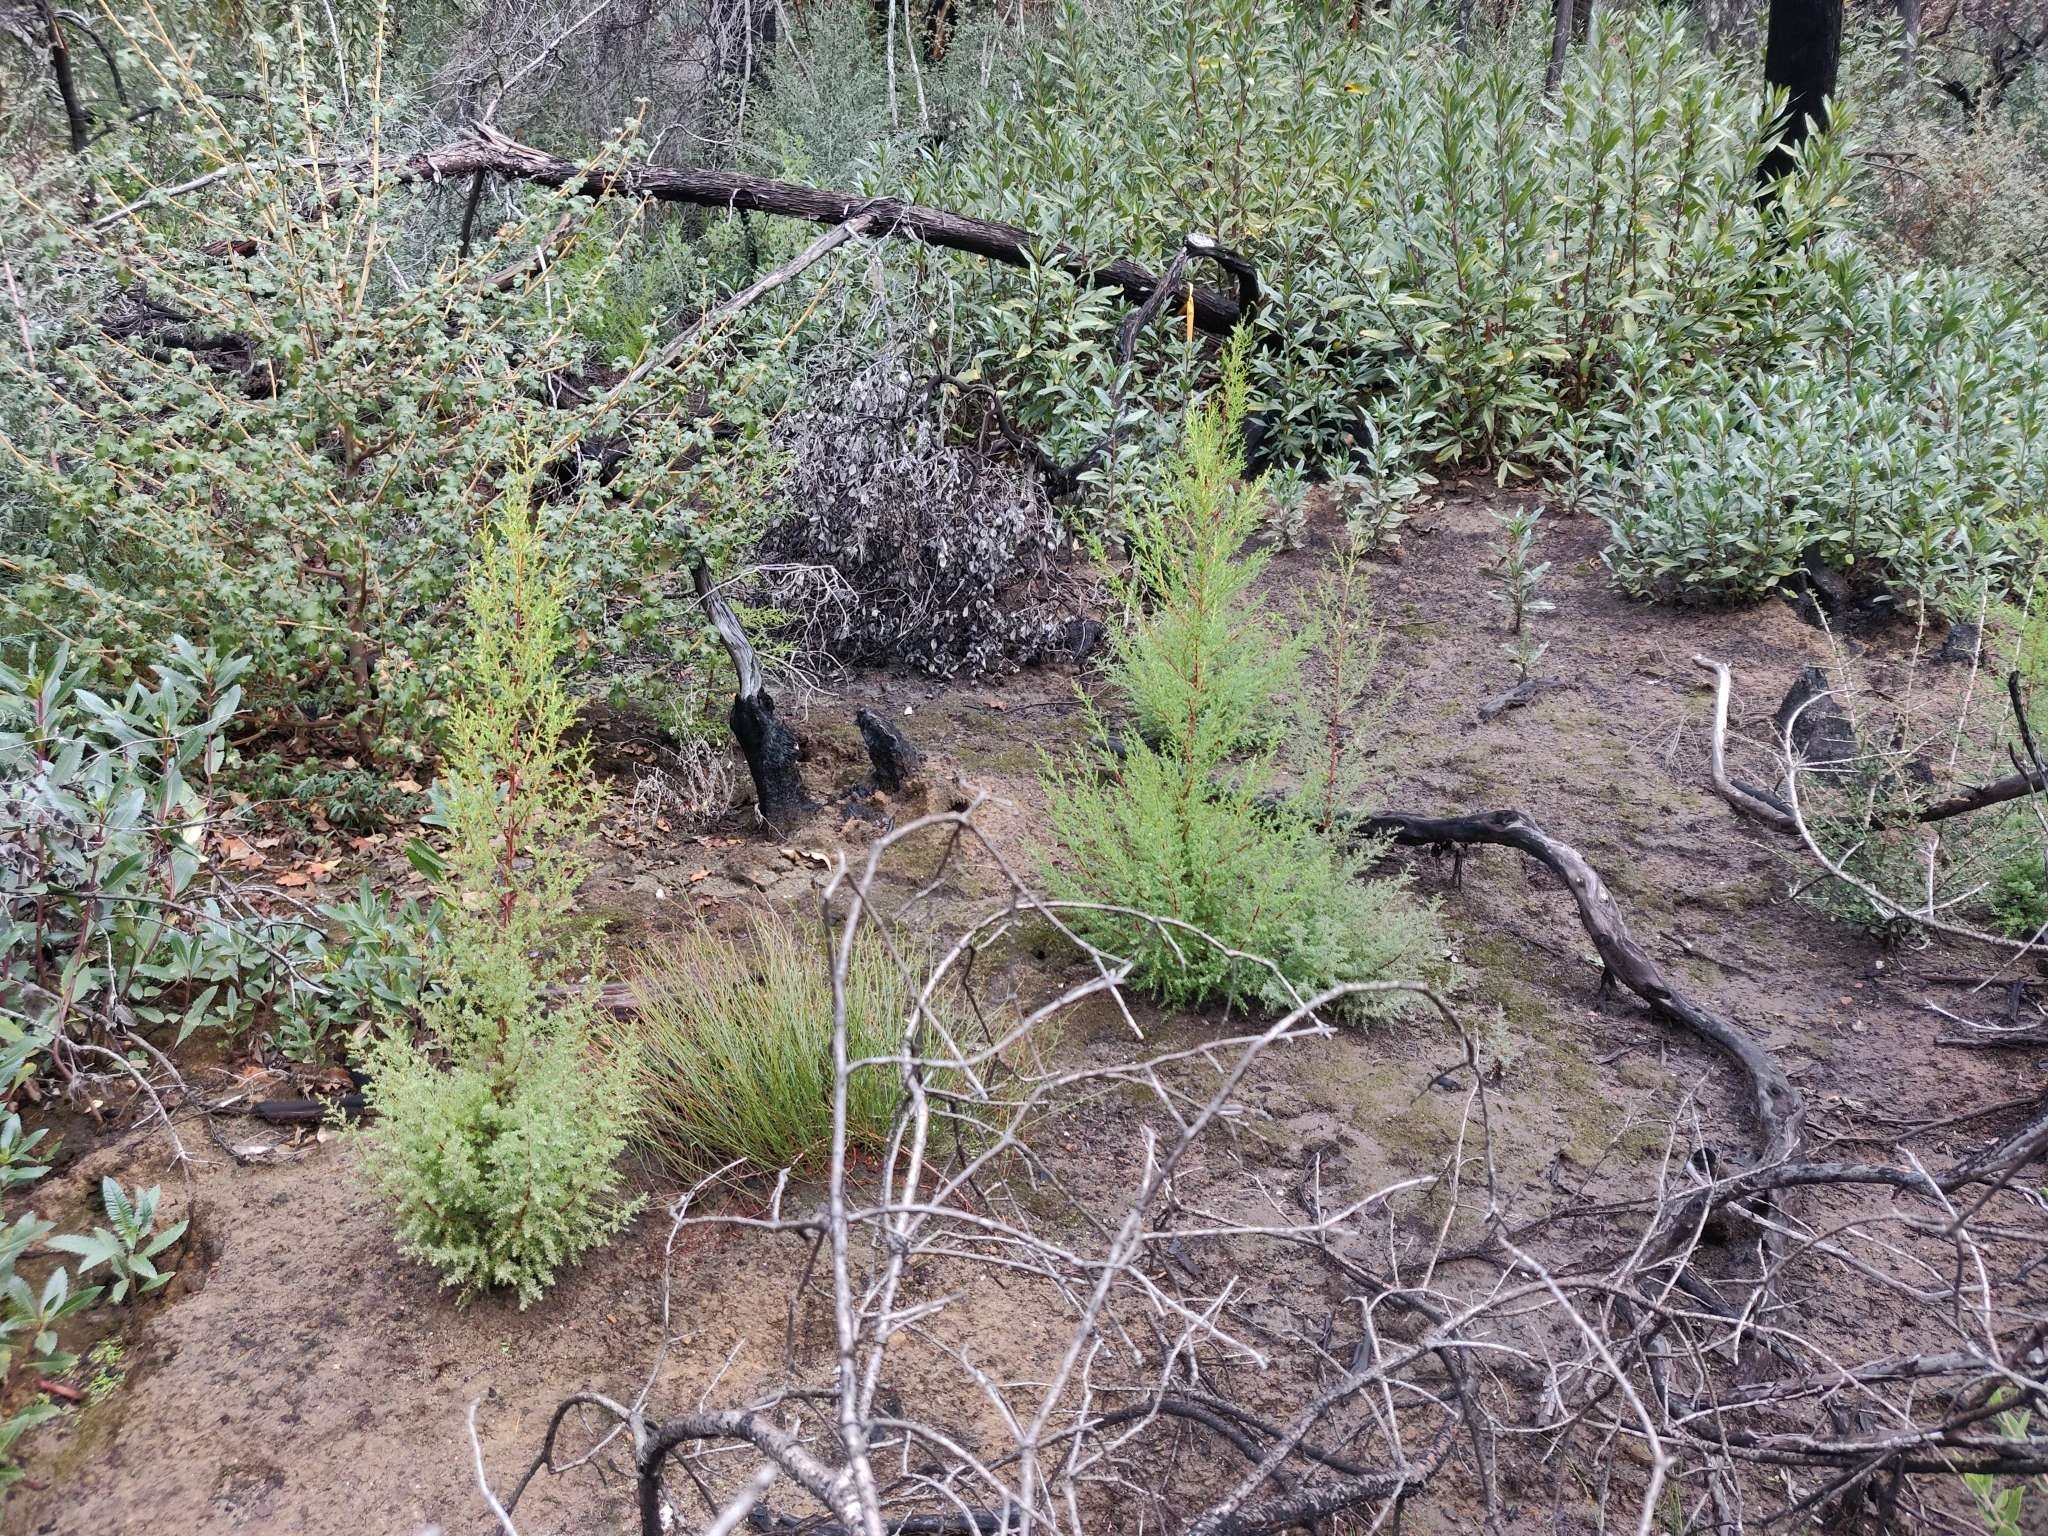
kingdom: Plantae
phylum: Tracheophyta
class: Pinopsida
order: Pinales
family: Cupressaceae
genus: Cupressus
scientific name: Cupressus goveniana
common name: Gowen cypress
